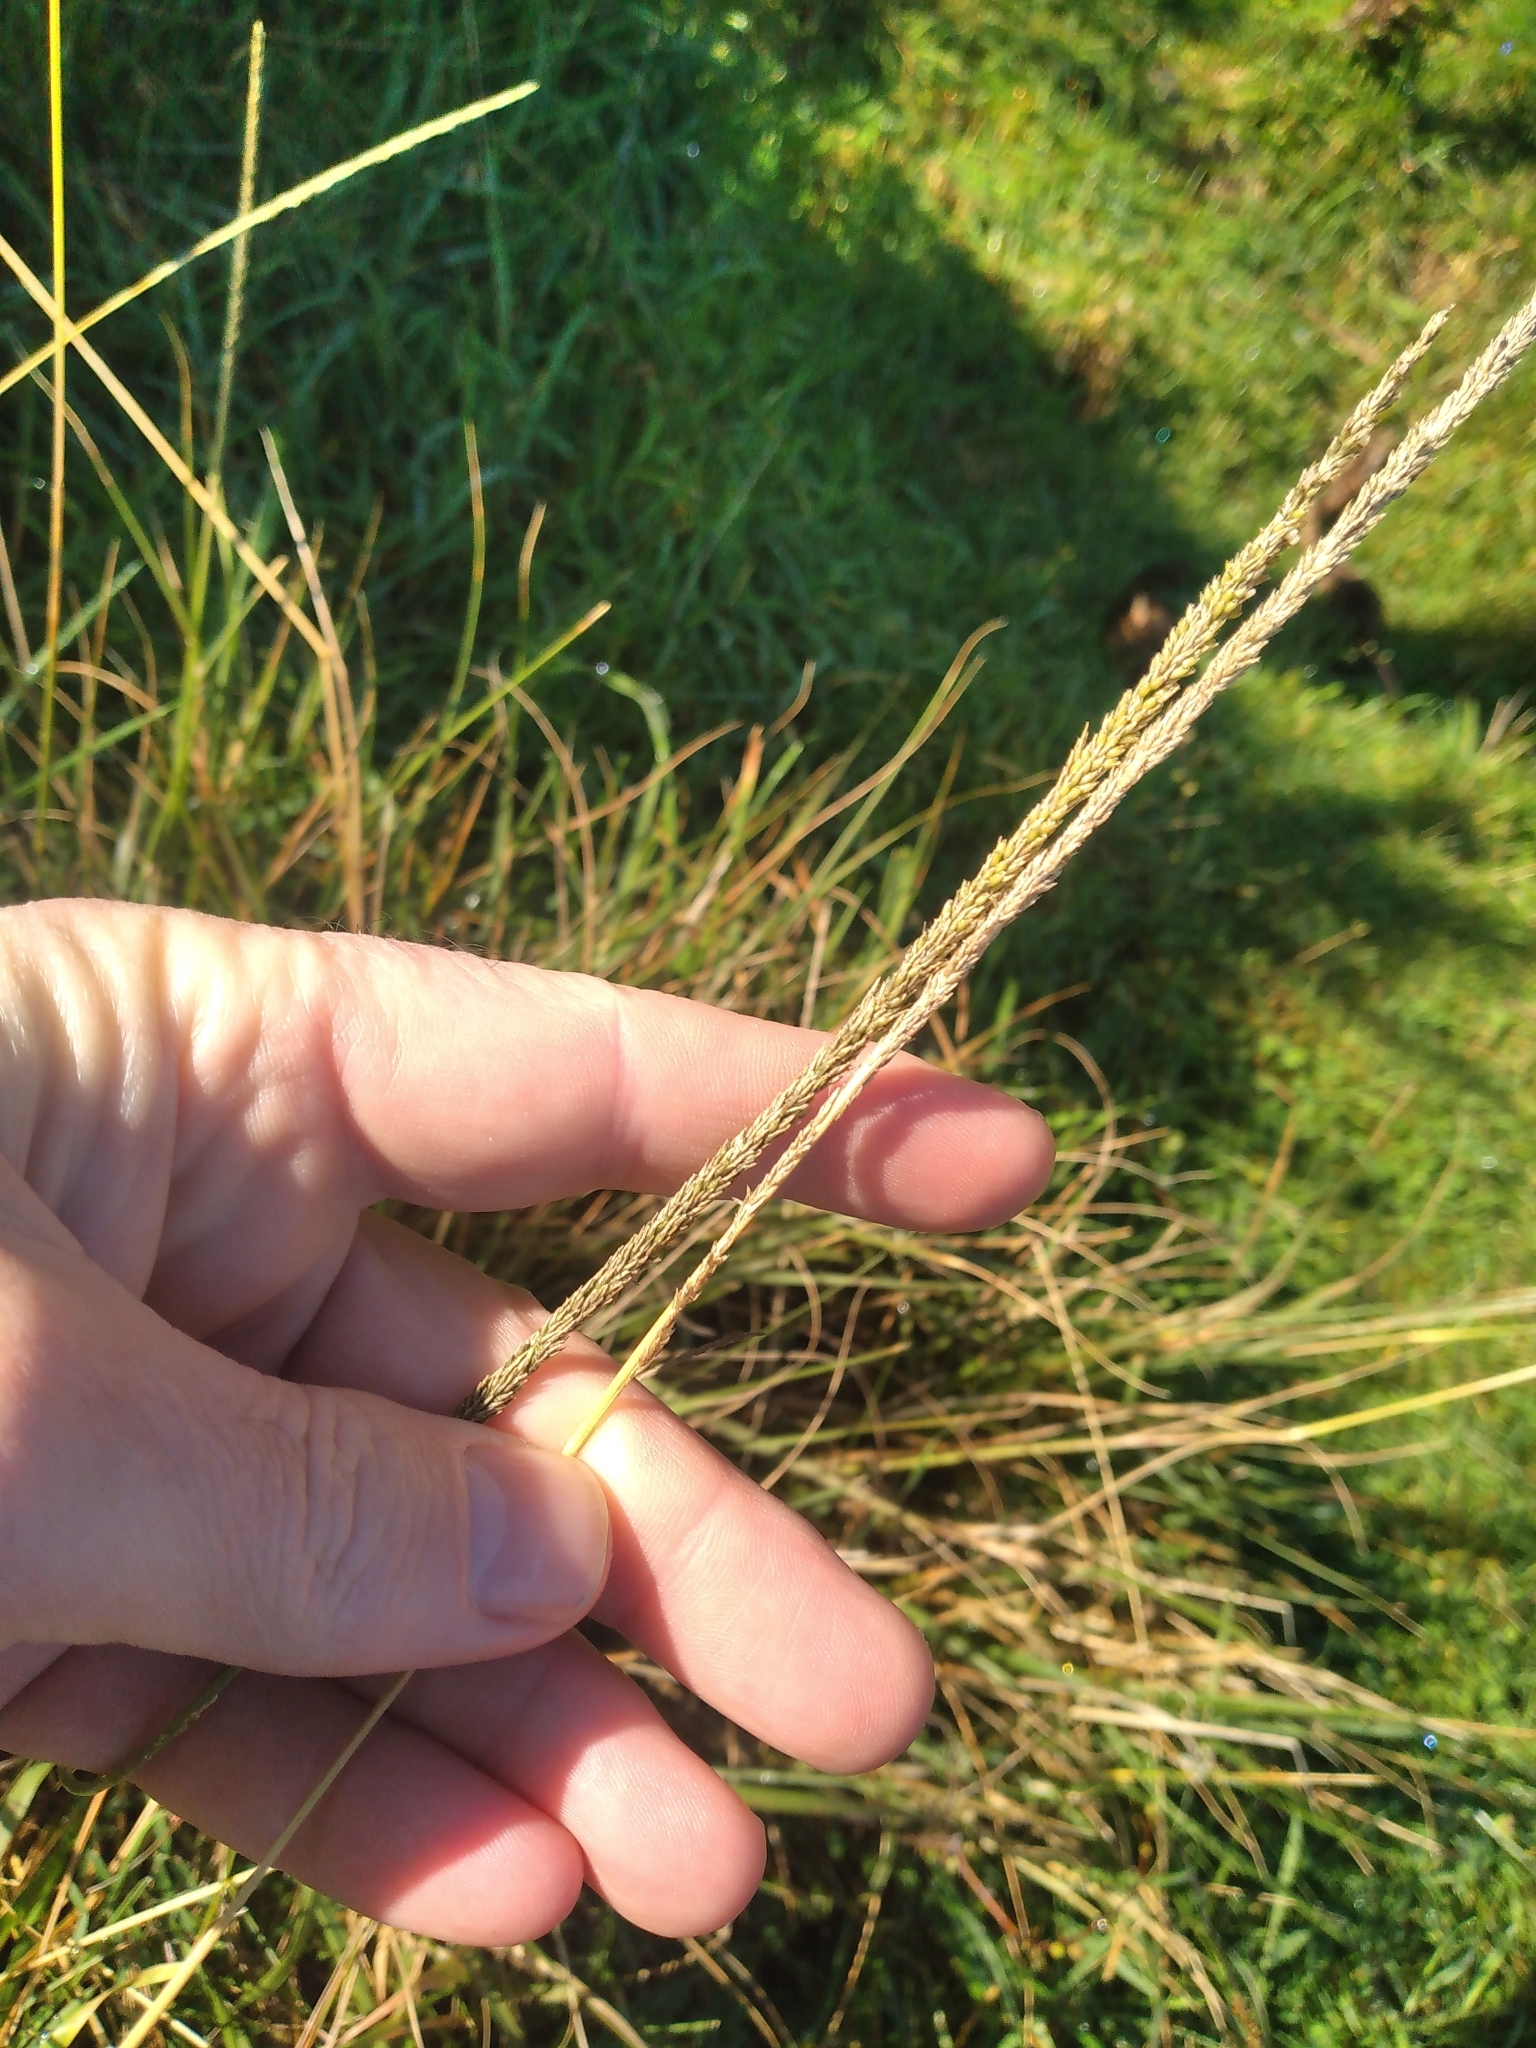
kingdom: Plantae
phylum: Tracheophyta
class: Liliopsida
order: Poales
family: Poaceae
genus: Sporobolus
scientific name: Sporobolus africanus
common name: African dropseed
